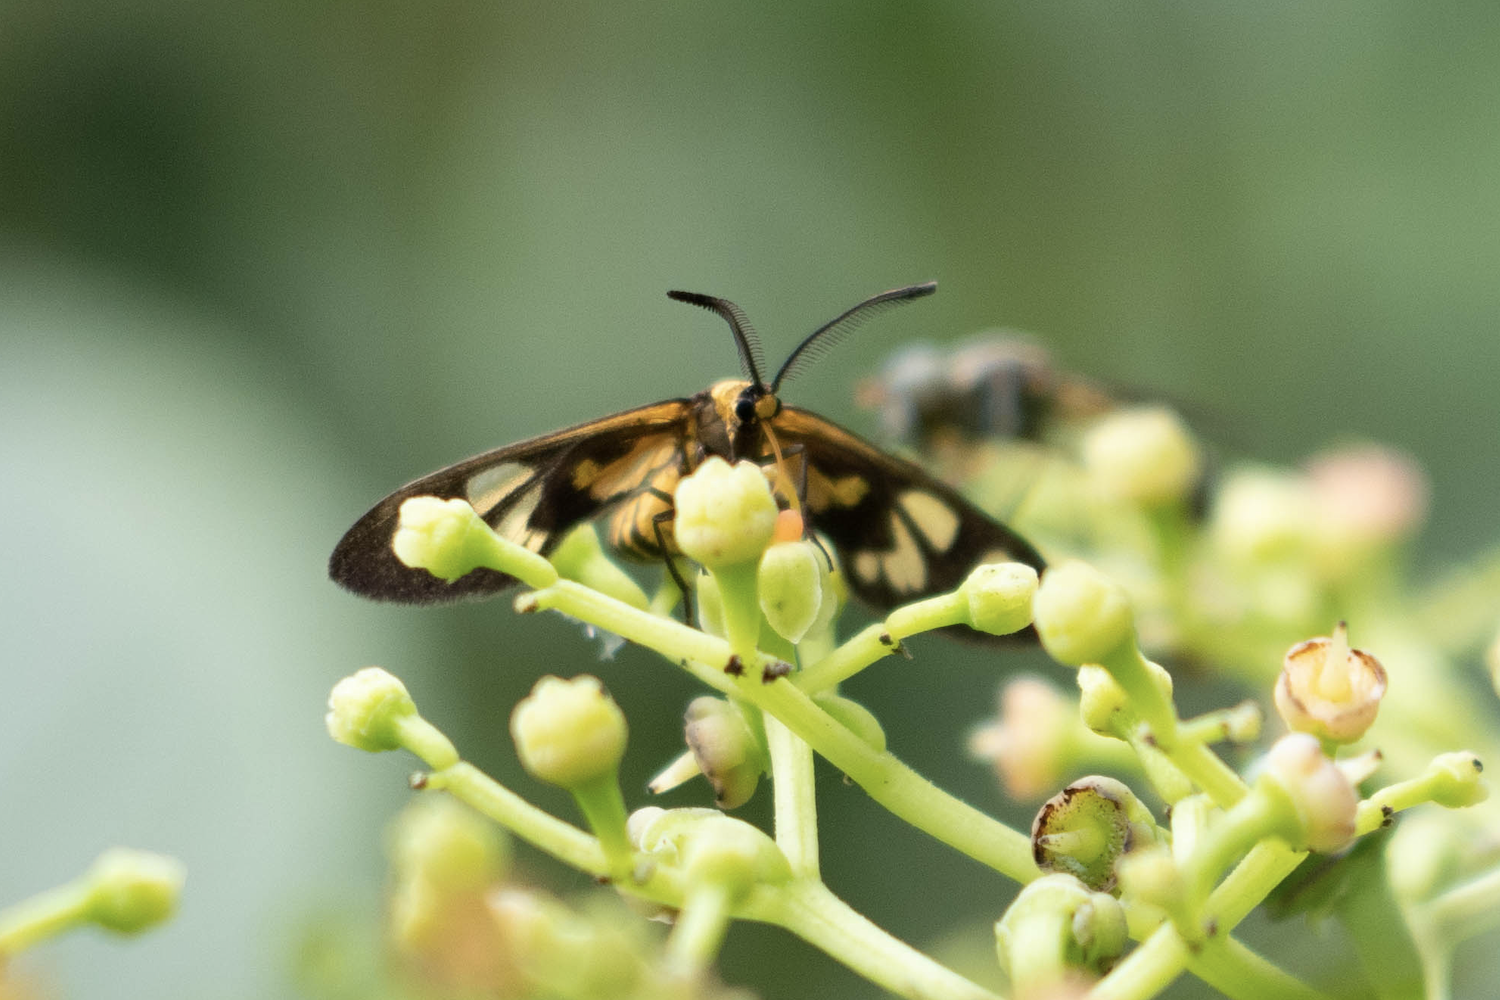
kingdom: Animalia
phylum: Arthropoda
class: Insecta
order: Lepidoptera
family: Zygaenidae
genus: Thyrassia
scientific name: Thyrassia penangae
